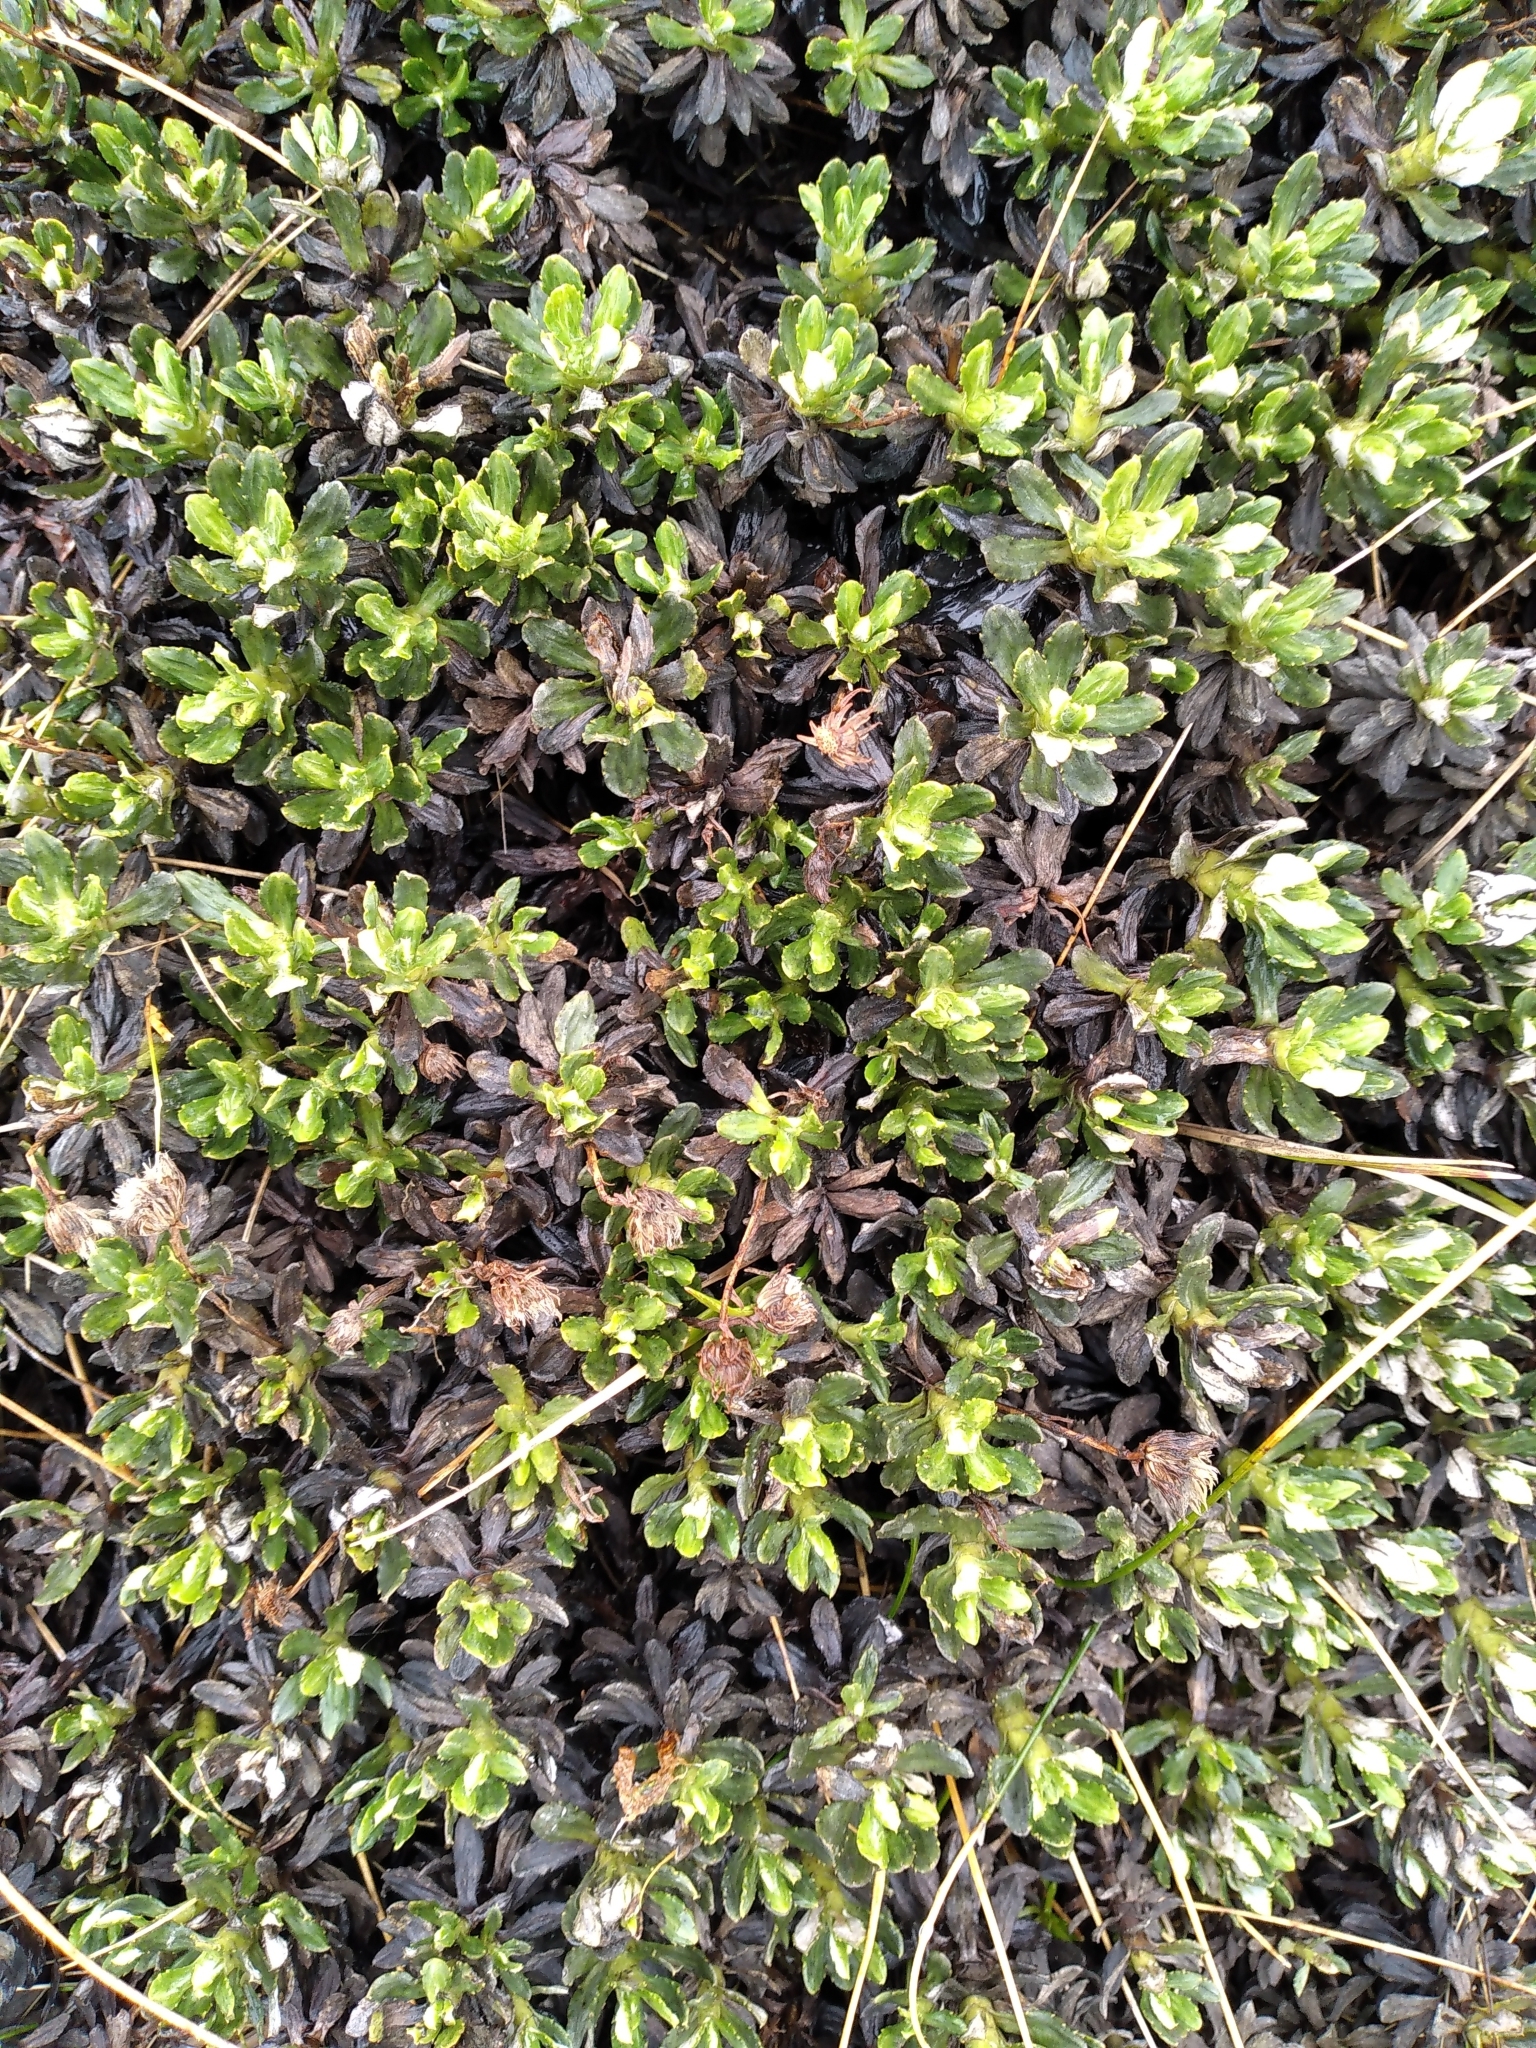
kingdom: Plantae
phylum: Tracheophyta
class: Magnoliopsida
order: Asterales
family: Asteraceae
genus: Celmisia
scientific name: Celmisia brevifolia
